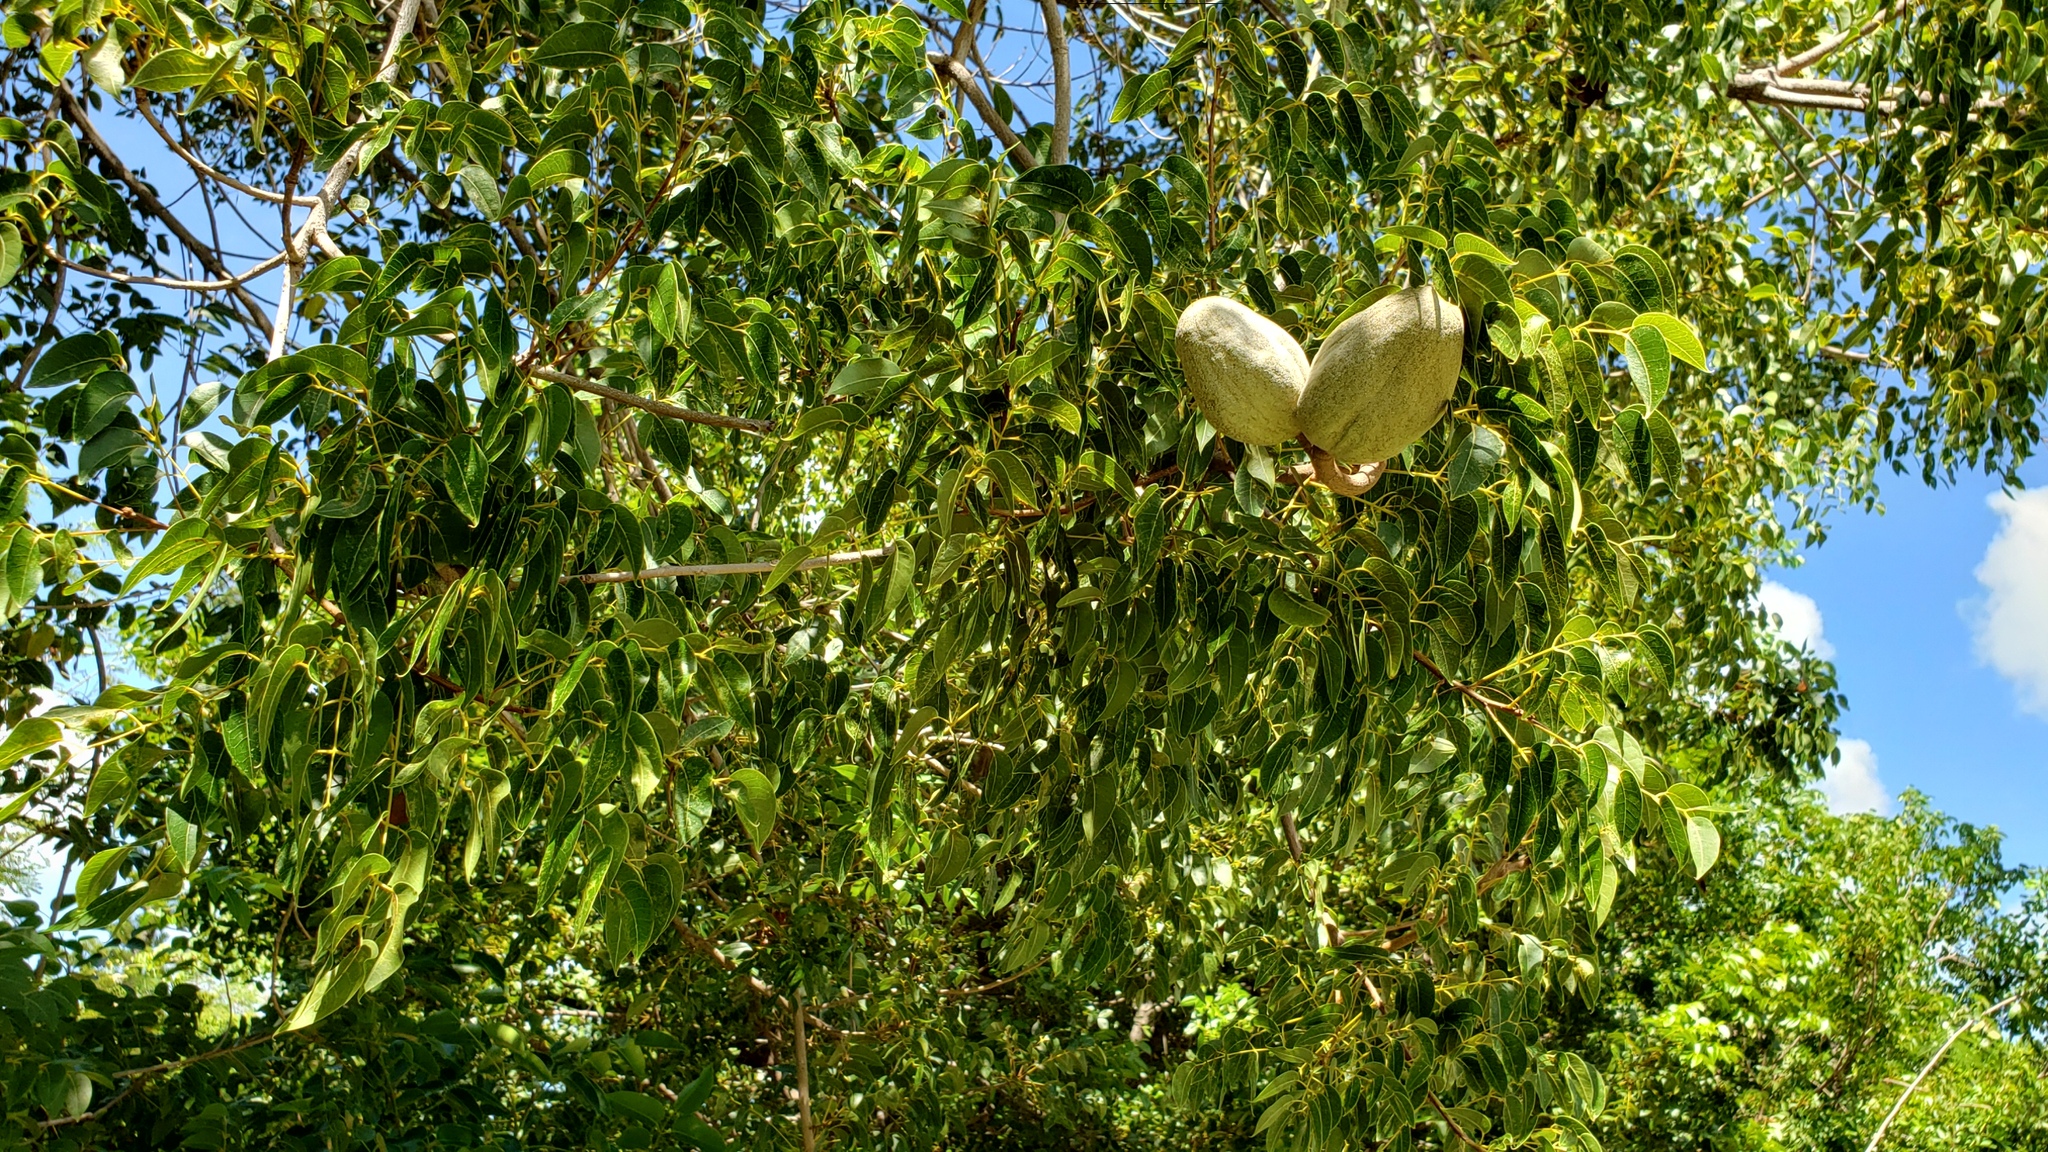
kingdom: Plantae
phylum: Tracheophyta
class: Magnoliopsida
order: Sapindales
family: Meliaceae
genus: Swietenia
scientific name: Swietenia mahagoni
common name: West indian mahogany
